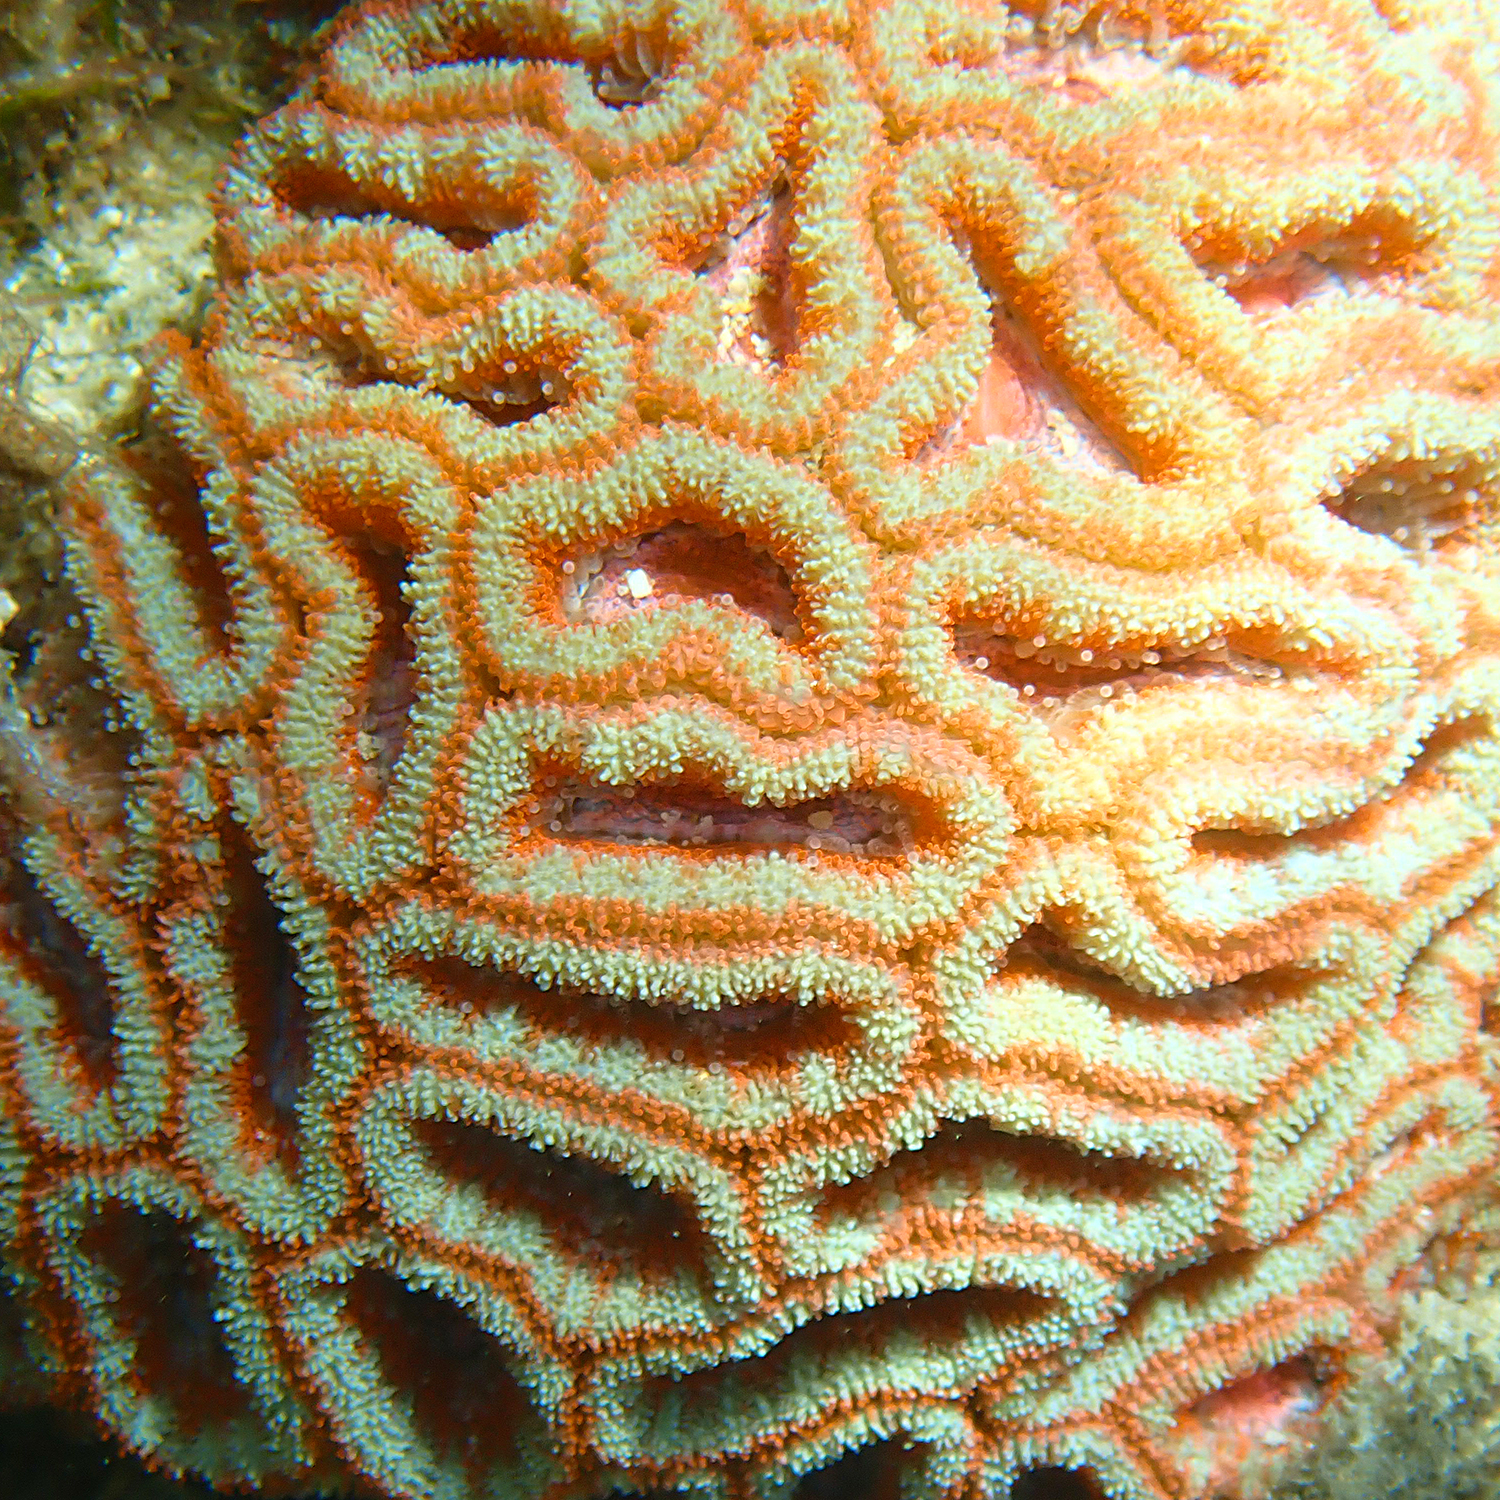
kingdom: Animalia
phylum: Cnidaria
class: Anthozoa
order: Scleractinia
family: Lobophylliidae
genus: Micromussa
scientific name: Micromussa lordhowensis
